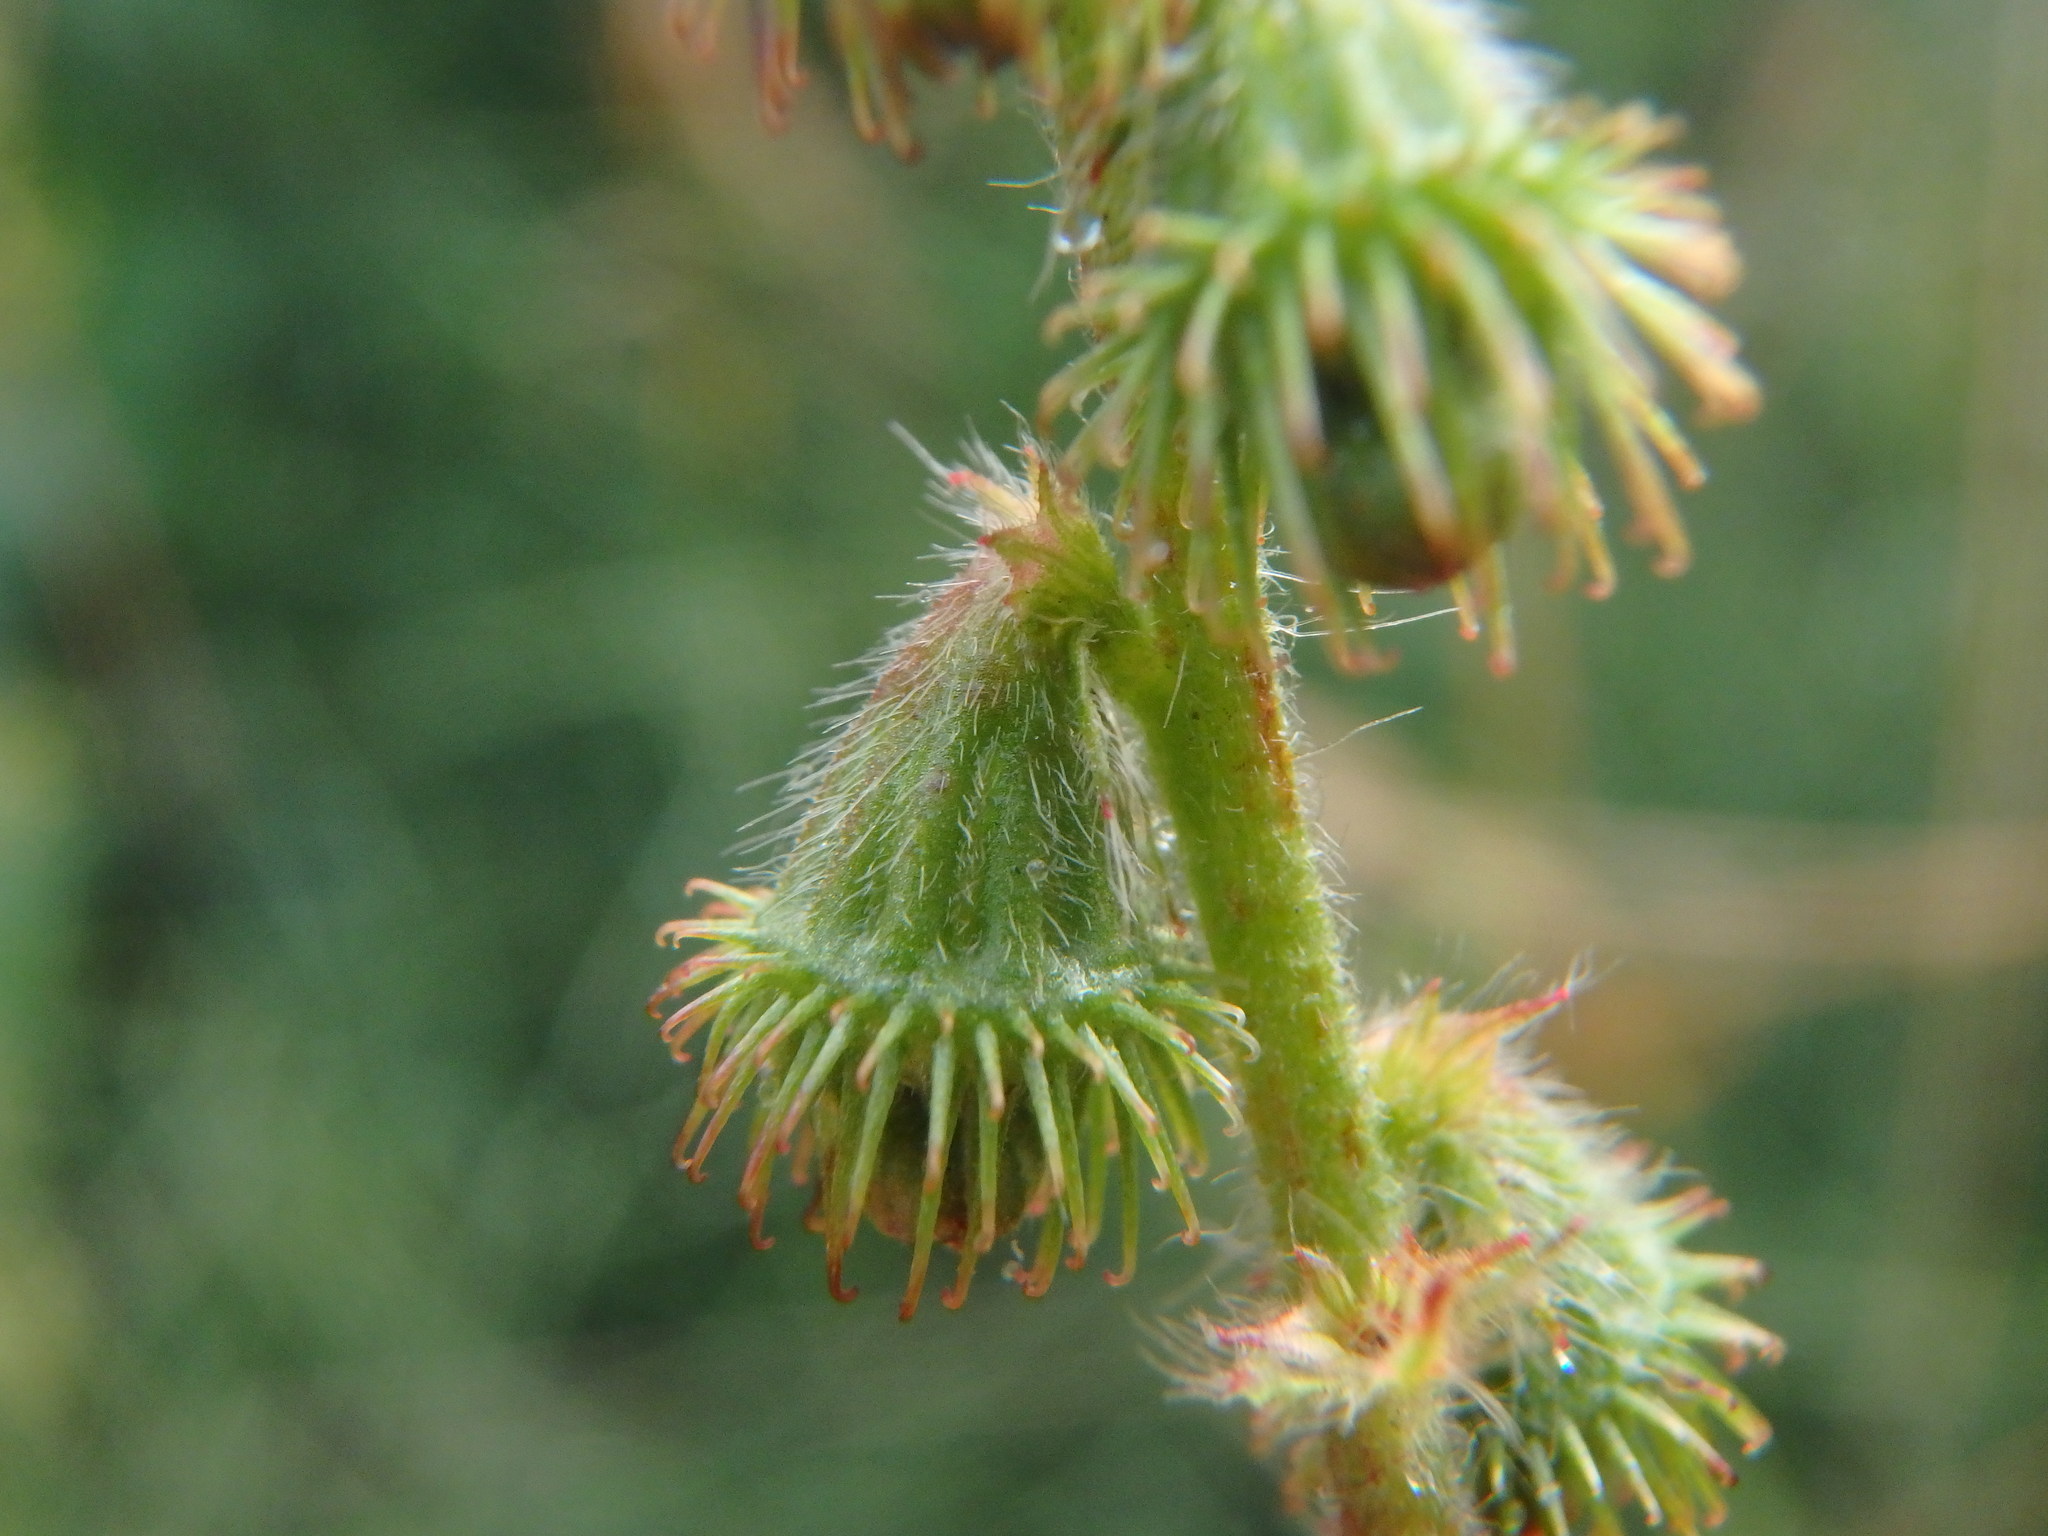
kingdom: Plantae
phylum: Tracheophyta
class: Magnoliopsida
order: Rosales
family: Rosaceae
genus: Agrimonia
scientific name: Agrimonia eupatoria
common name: Agrimony
